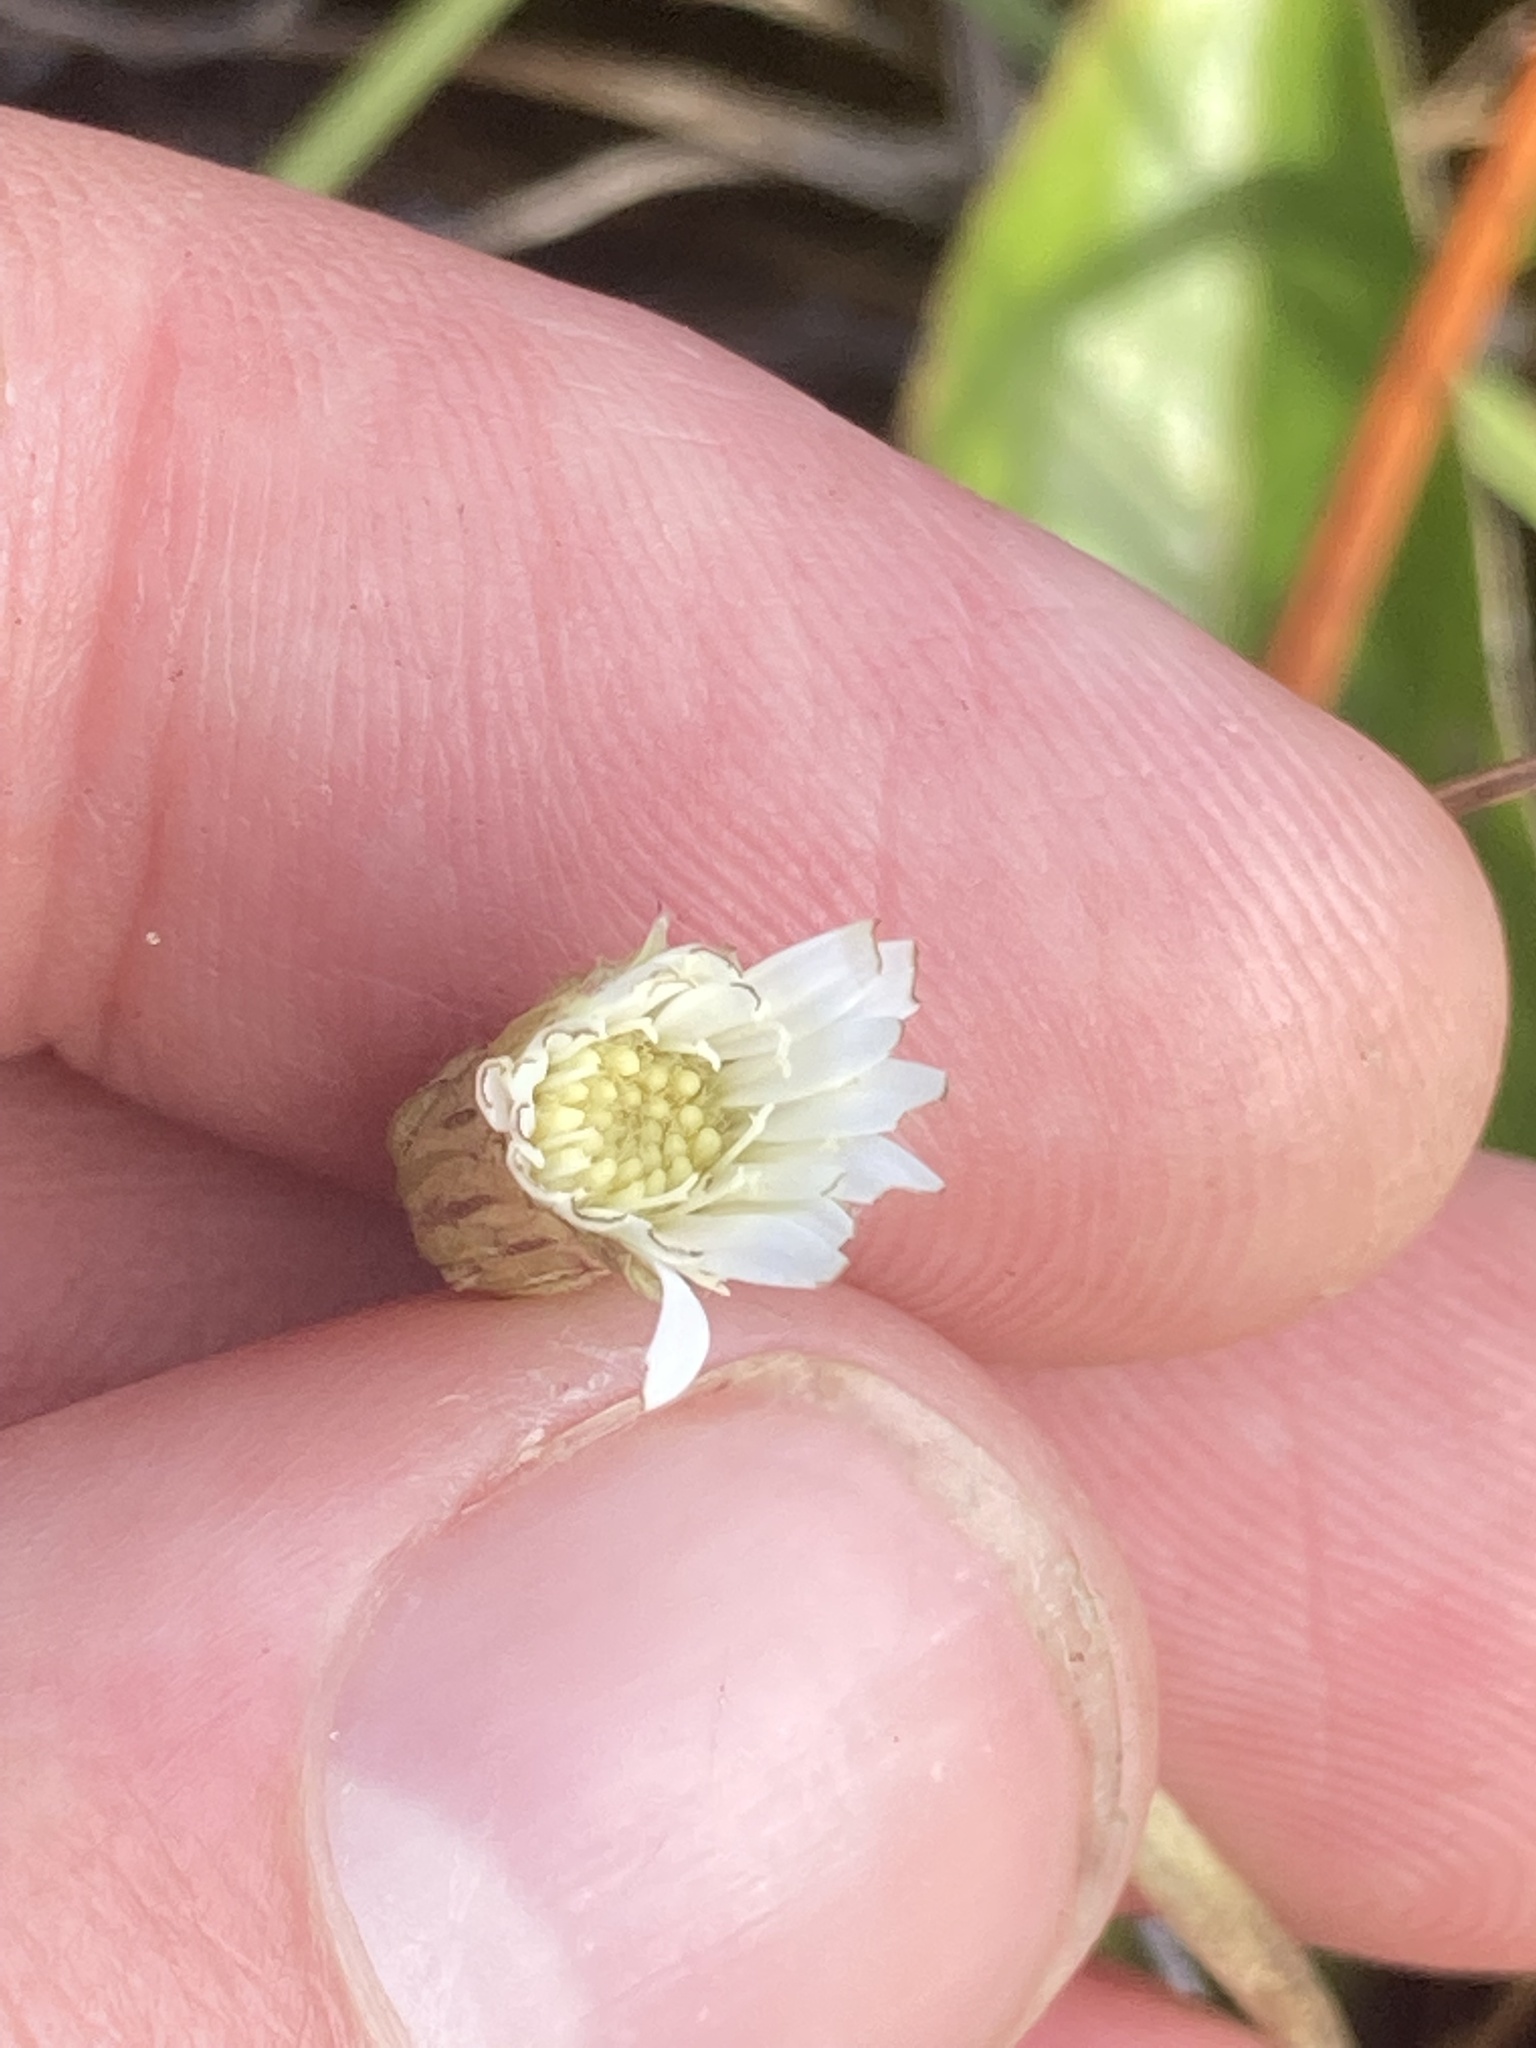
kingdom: Plantae
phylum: Tracheophyta
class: Magnoliopsida
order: Asterales
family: Asteraceae
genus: Chaptalia
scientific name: Chaptalia tomentosa
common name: Woolly sunbonnet
